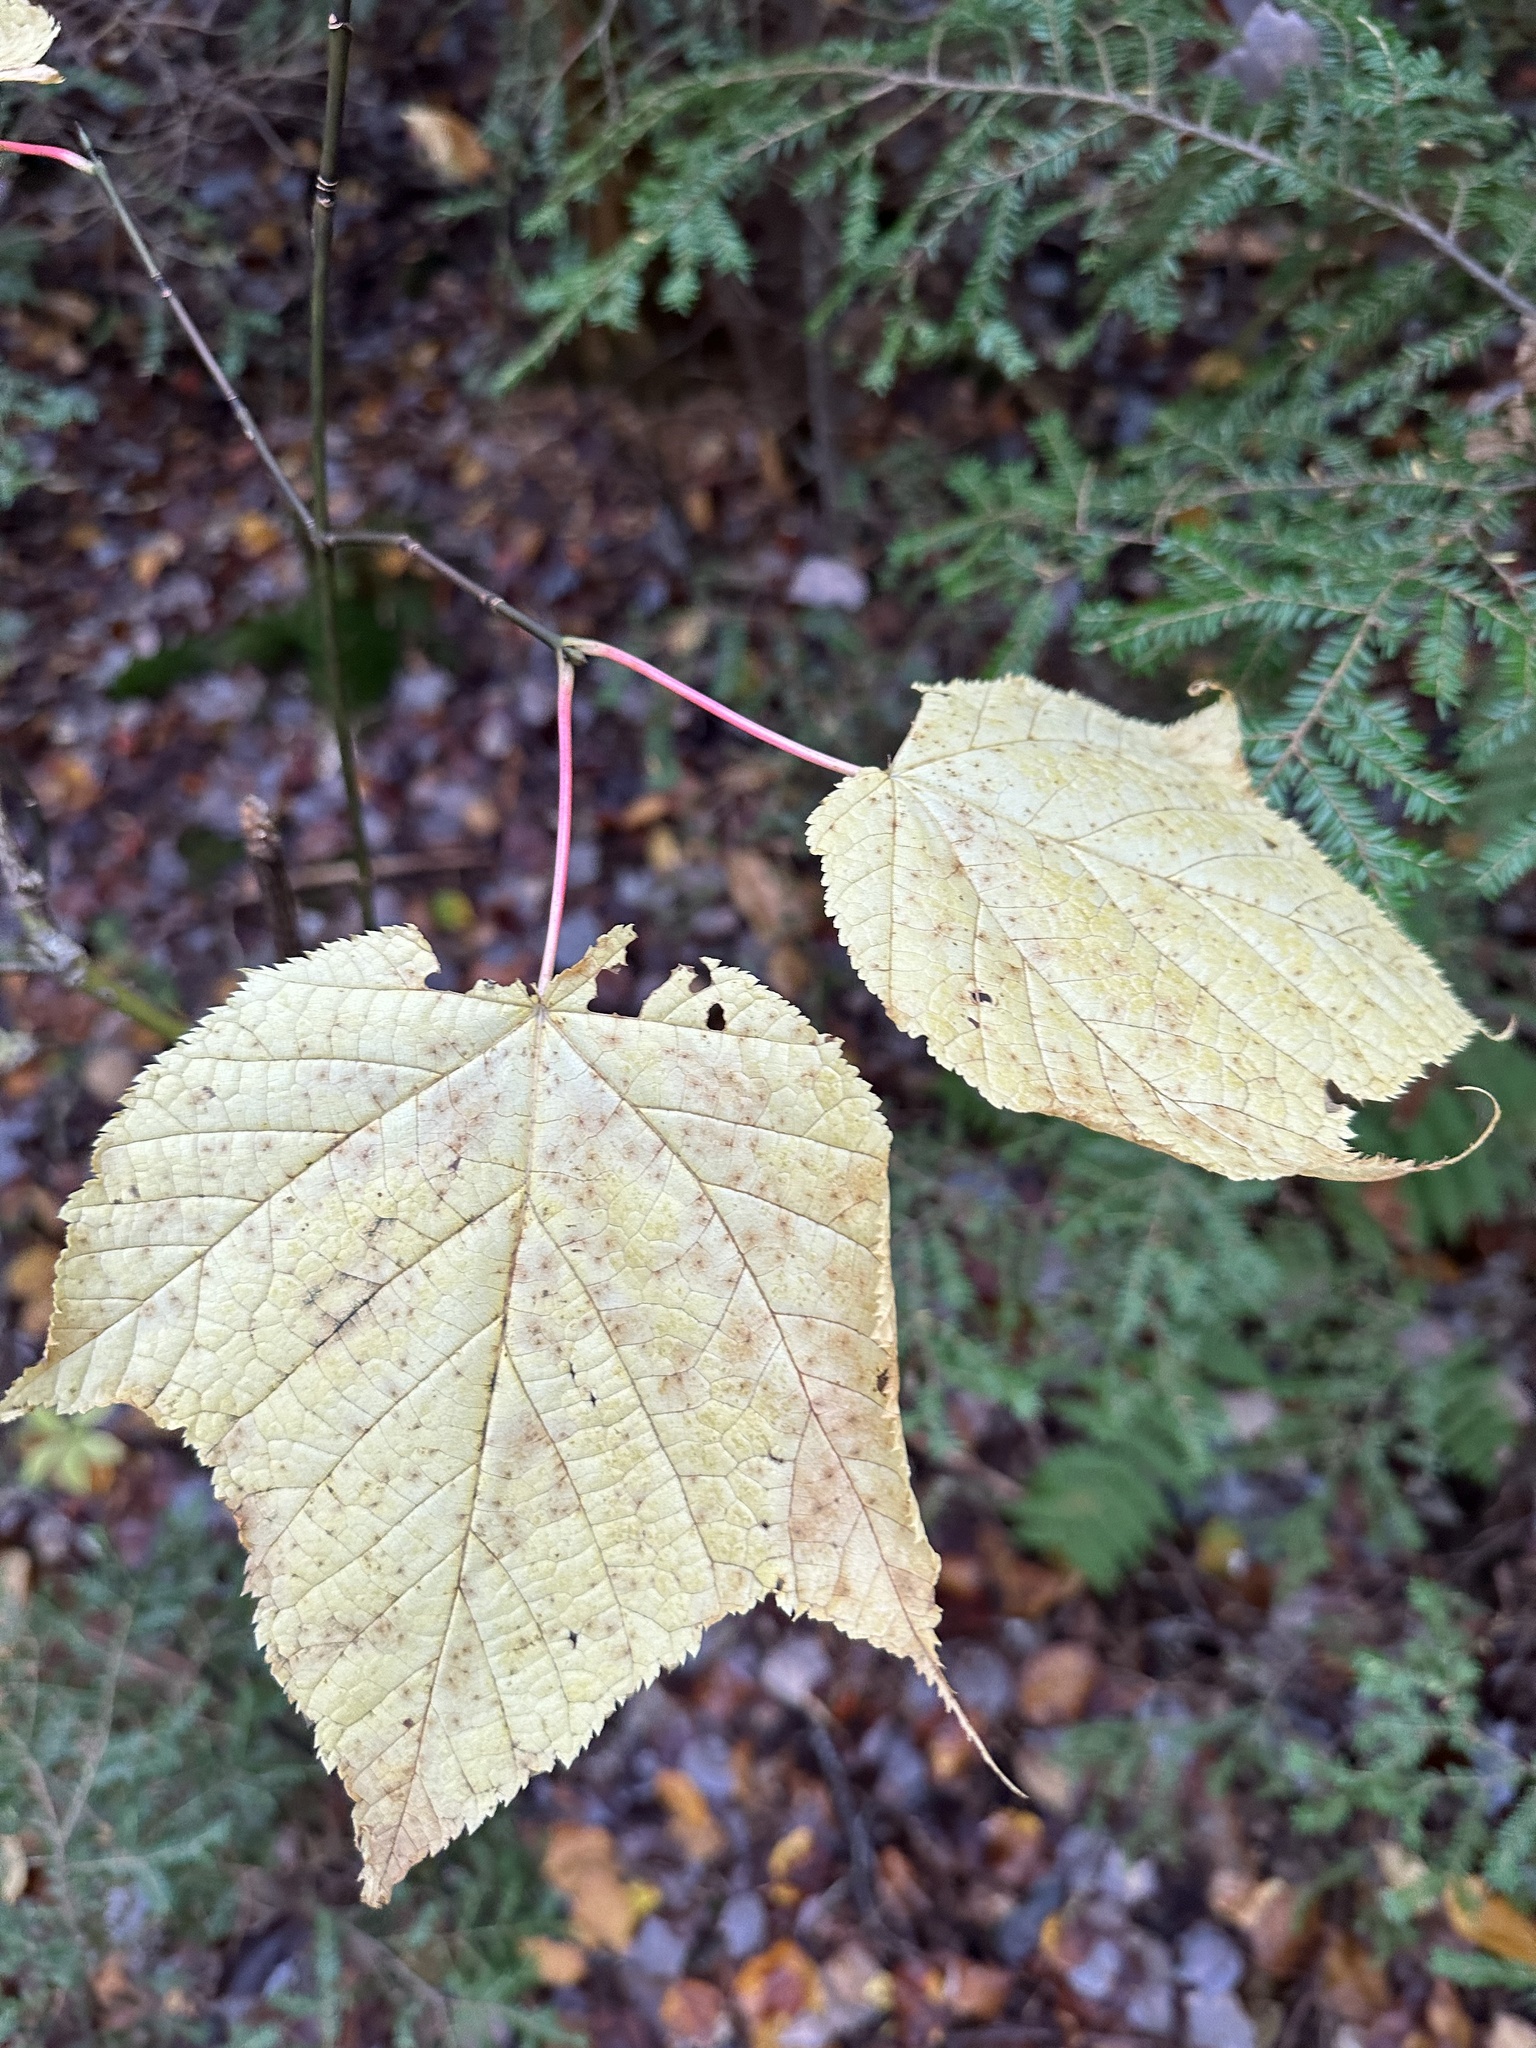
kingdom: Plantae
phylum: Tracheophyta
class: Magnoliopsida
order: Sapindales
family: Sapindaceae
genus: Acer
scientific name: Acer pensylvanicum
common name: Moosewood
